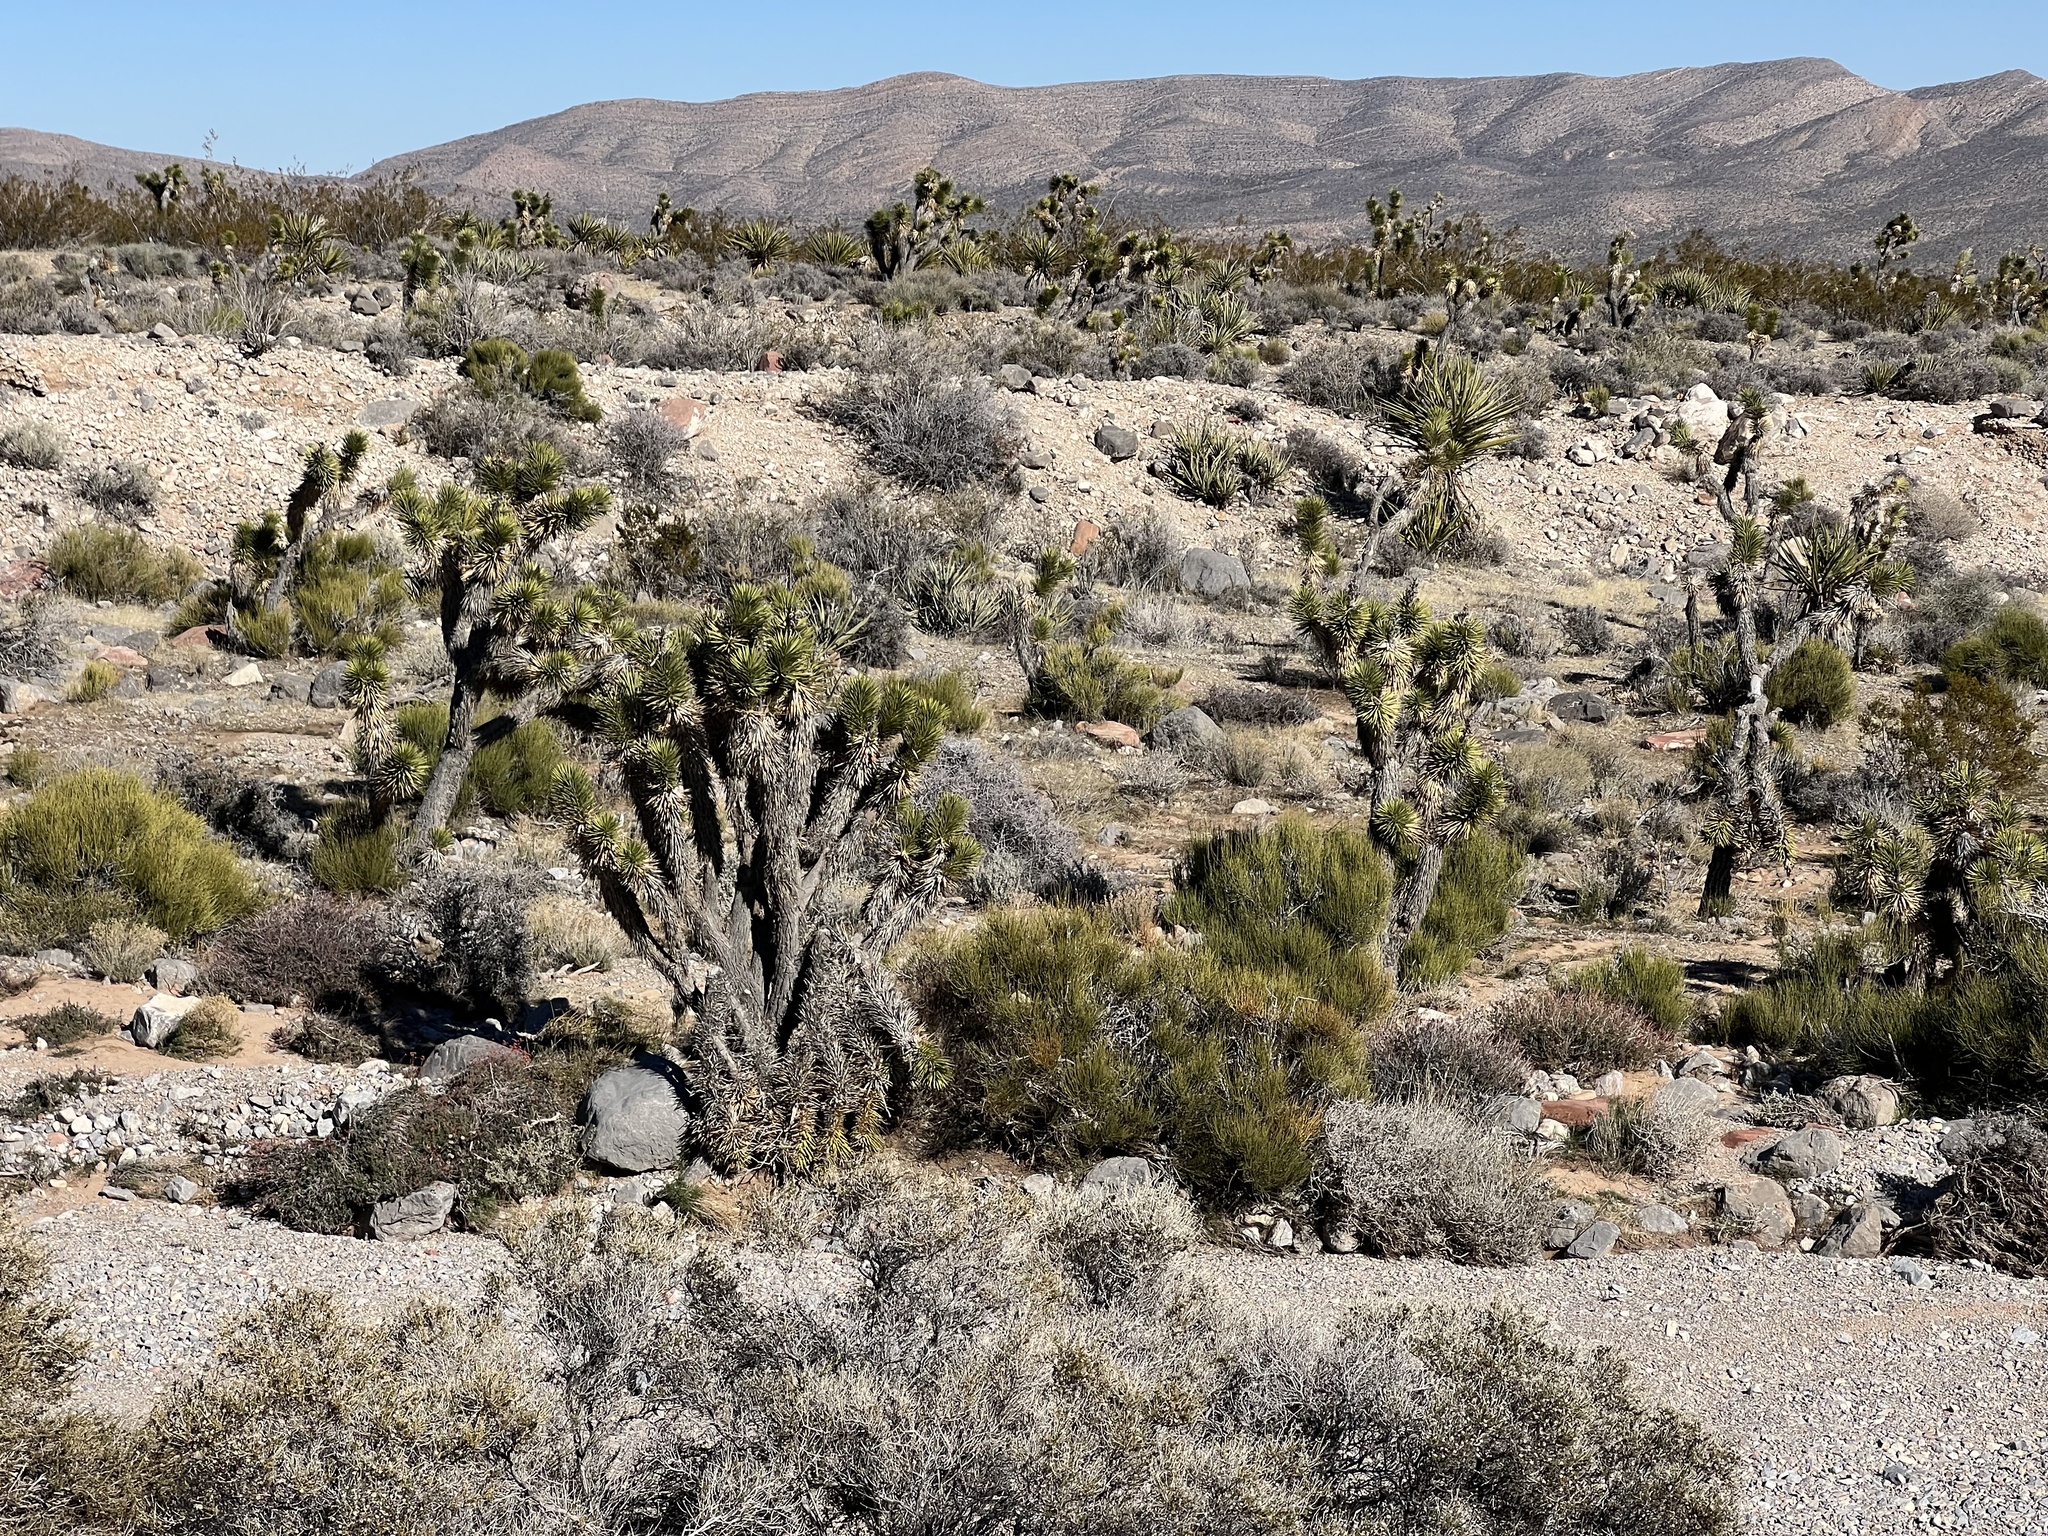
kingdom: Plantae
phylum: Tracheophyta
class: Liliopsida
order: Asparagales
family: Asparagaceae
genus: Yucca
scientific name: Yucca brevifolia
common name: Joshua tree
